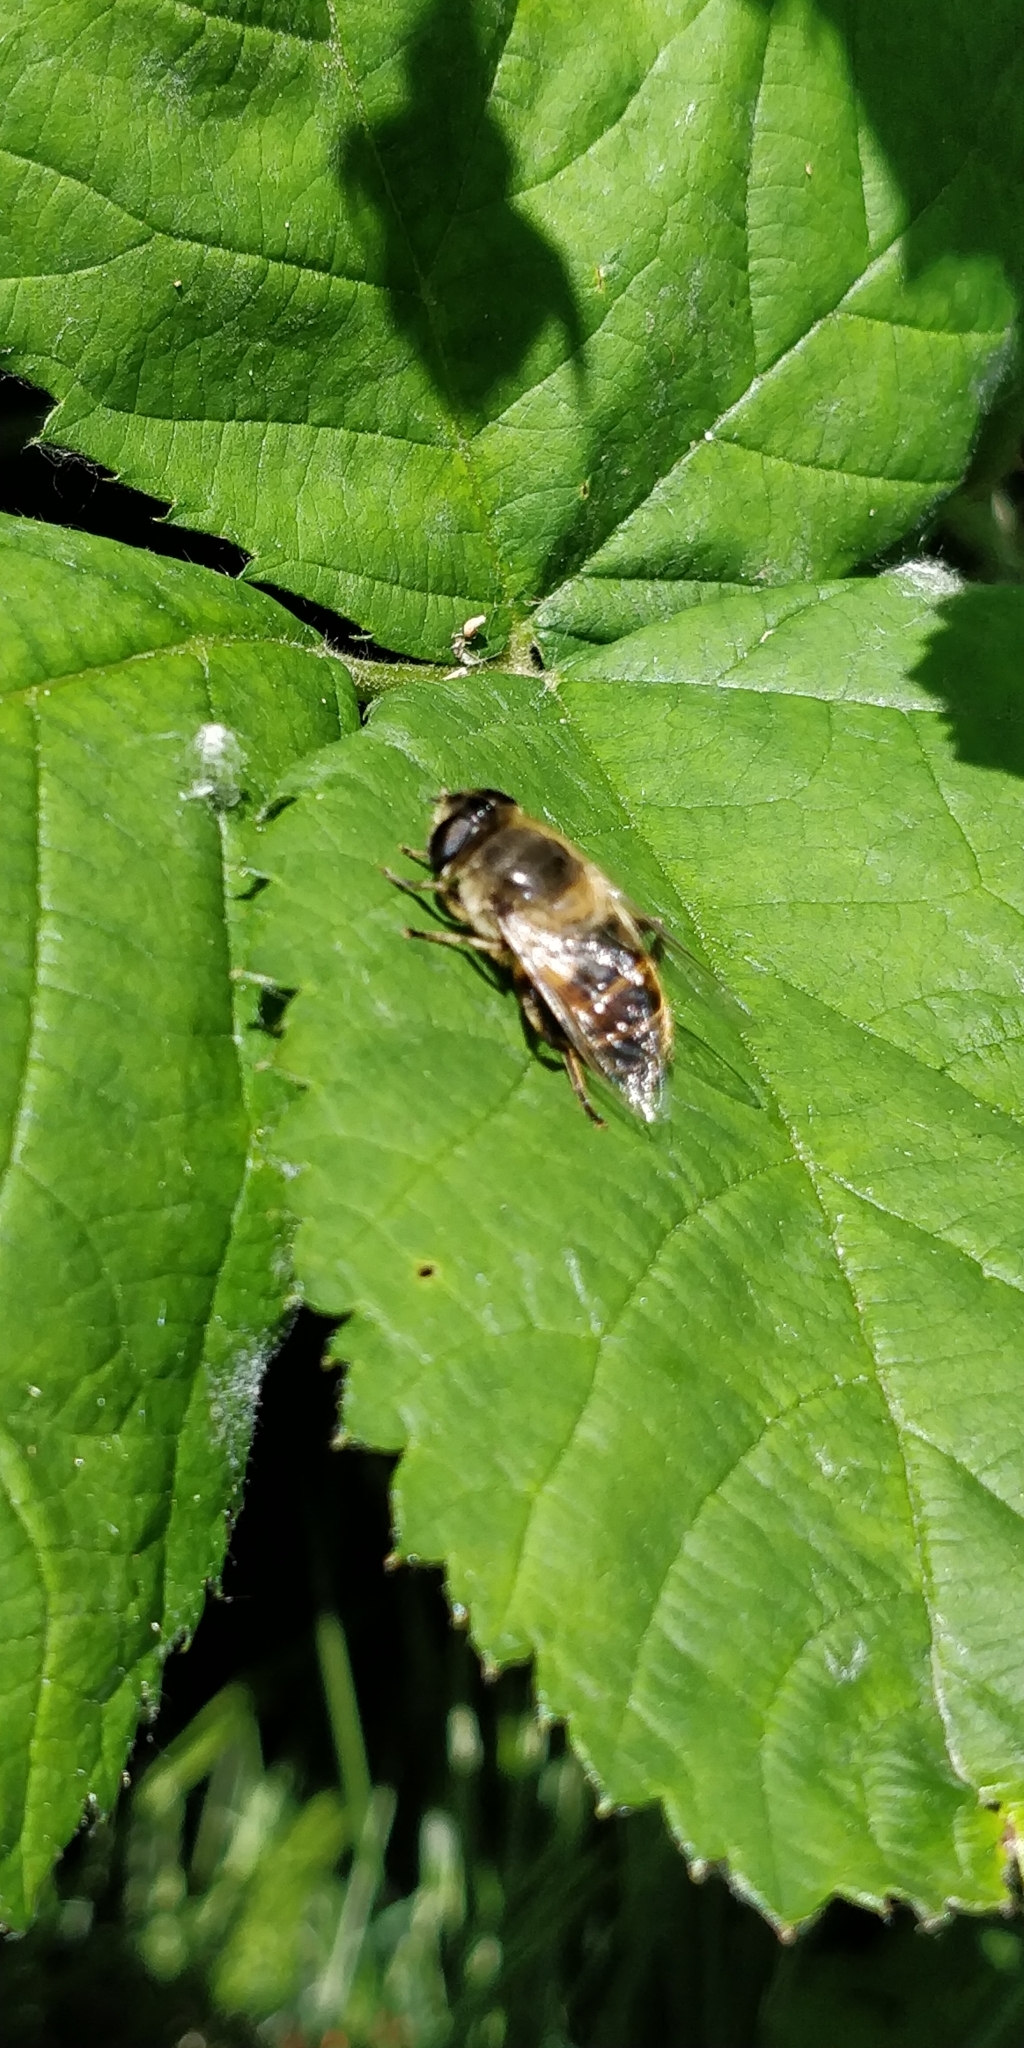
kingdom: Animalia
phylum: Arthropoda
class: Insecta
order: Diptera
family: Syrphidae
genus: Eristalis
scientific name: Eristalis tenax
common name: Drone fly
